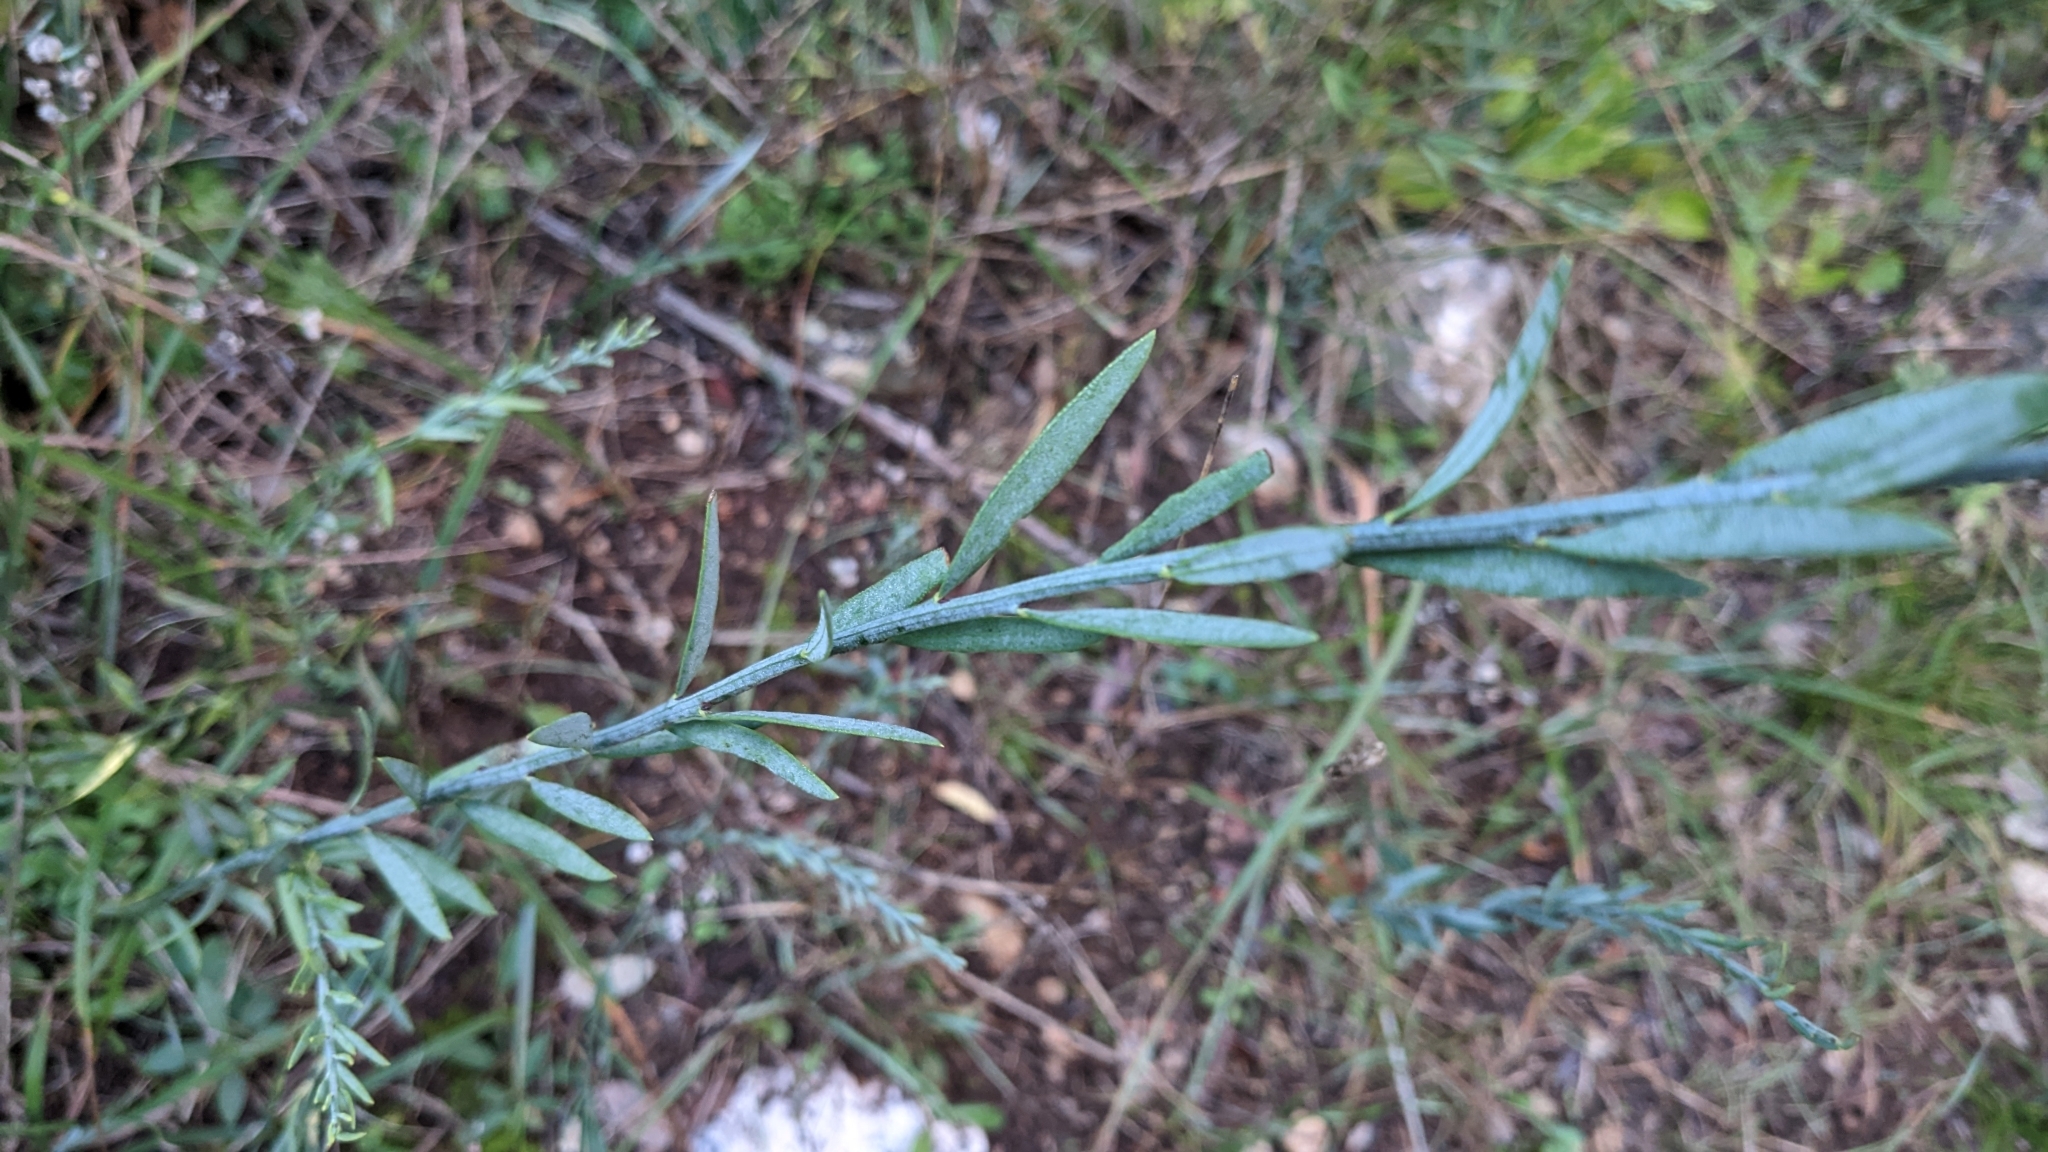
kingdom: Plantae
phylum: Tracheophyta
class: Magnoliopsida
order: Santalales
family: Santalaceae
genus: Osyris
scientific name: Osyris alba
